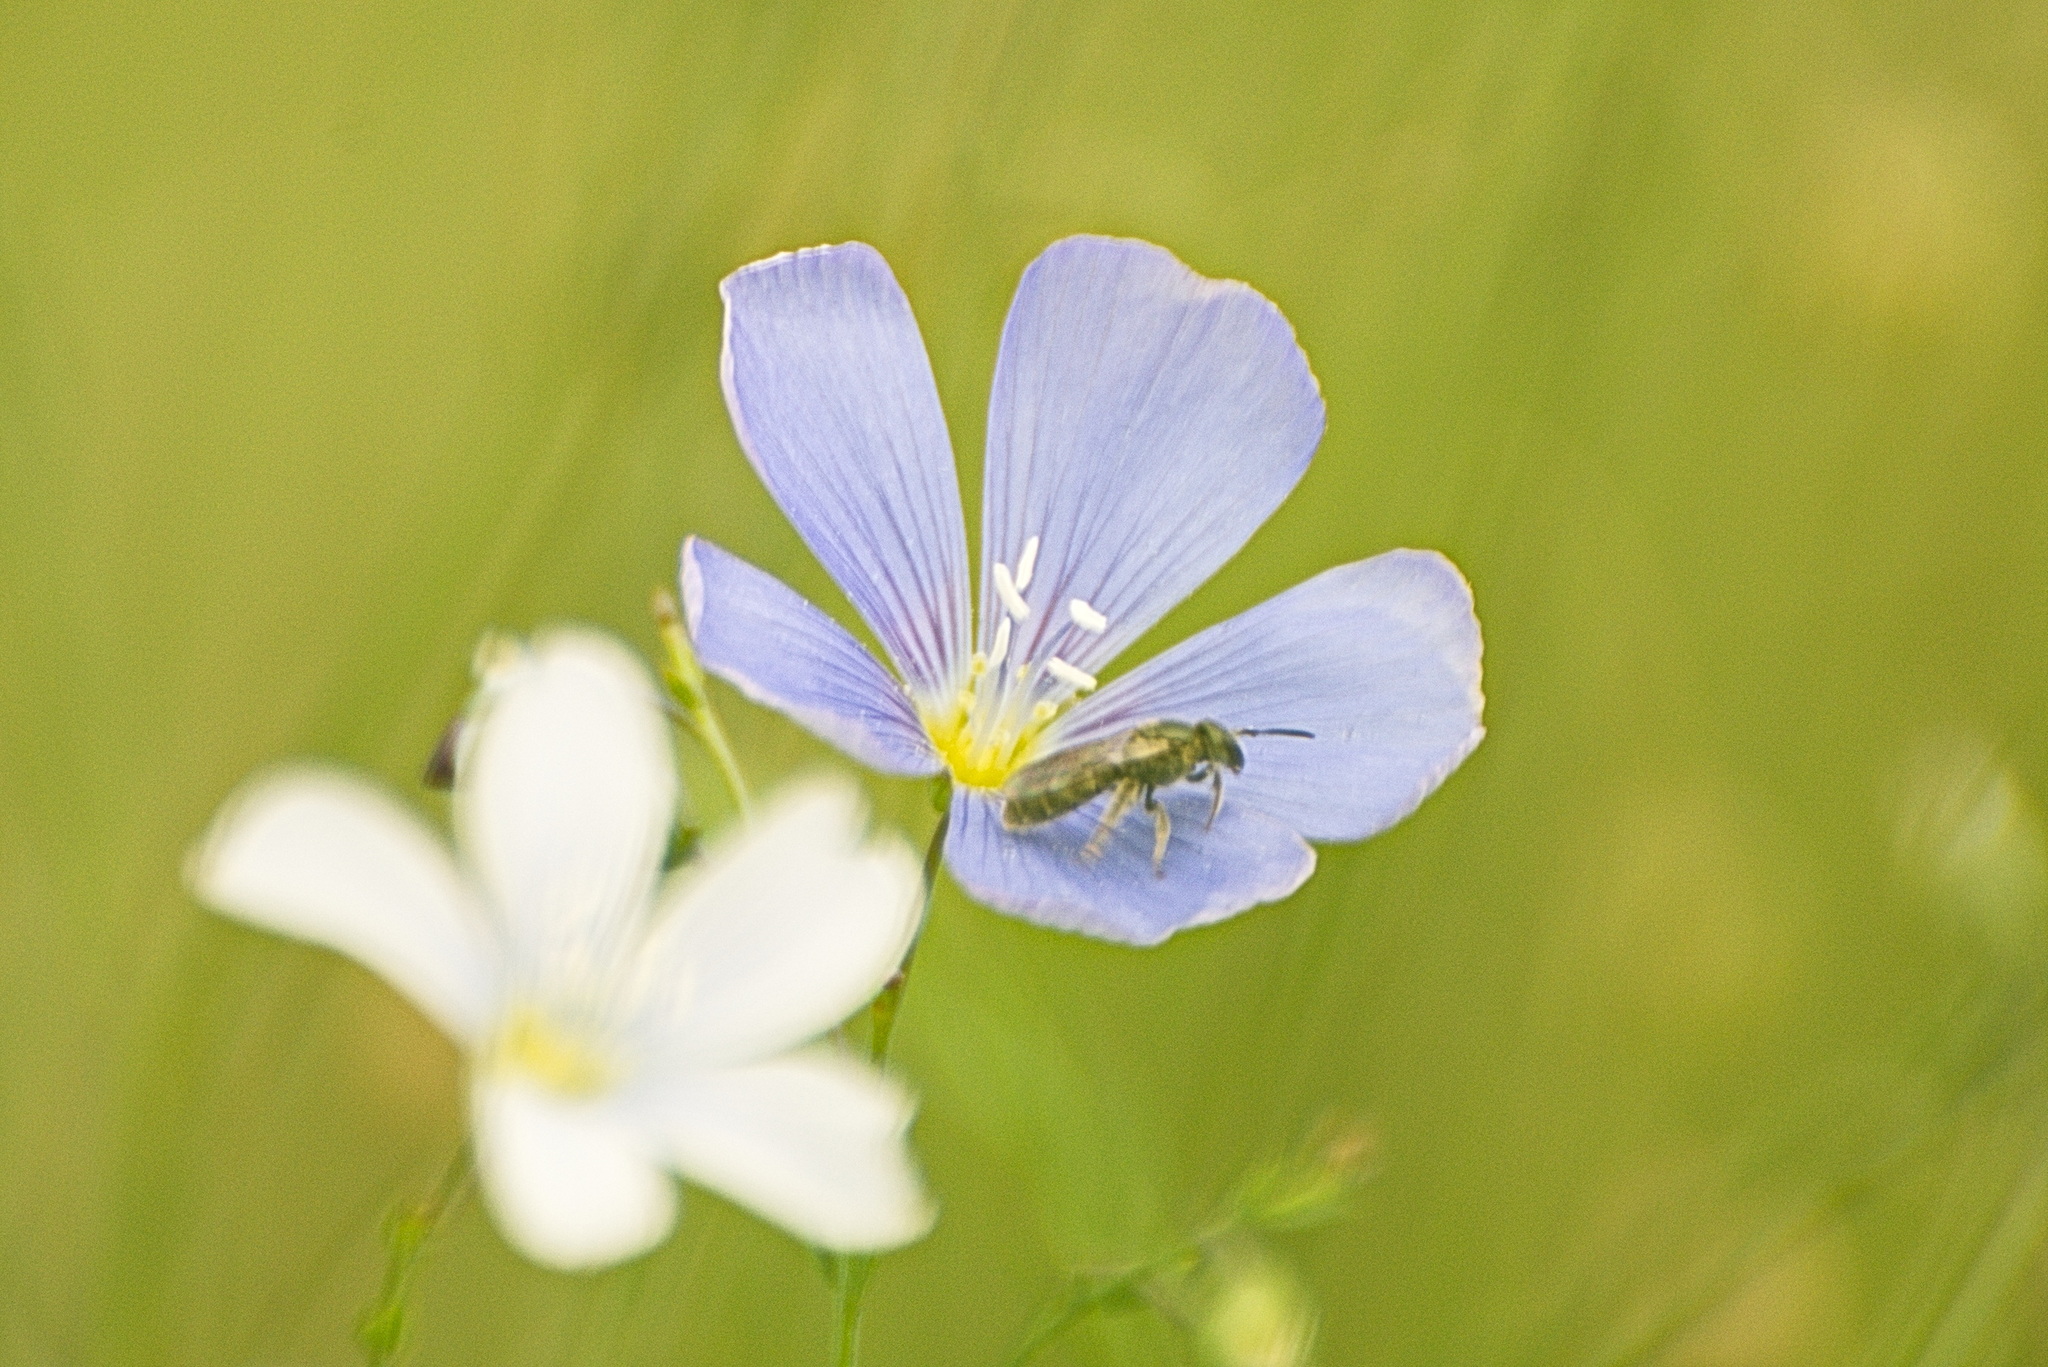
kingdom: Animalia
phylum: Arthropoda
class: Insecta
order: Hymenoptera
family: Halictidae
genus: Dialictus
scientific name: Dialictus
